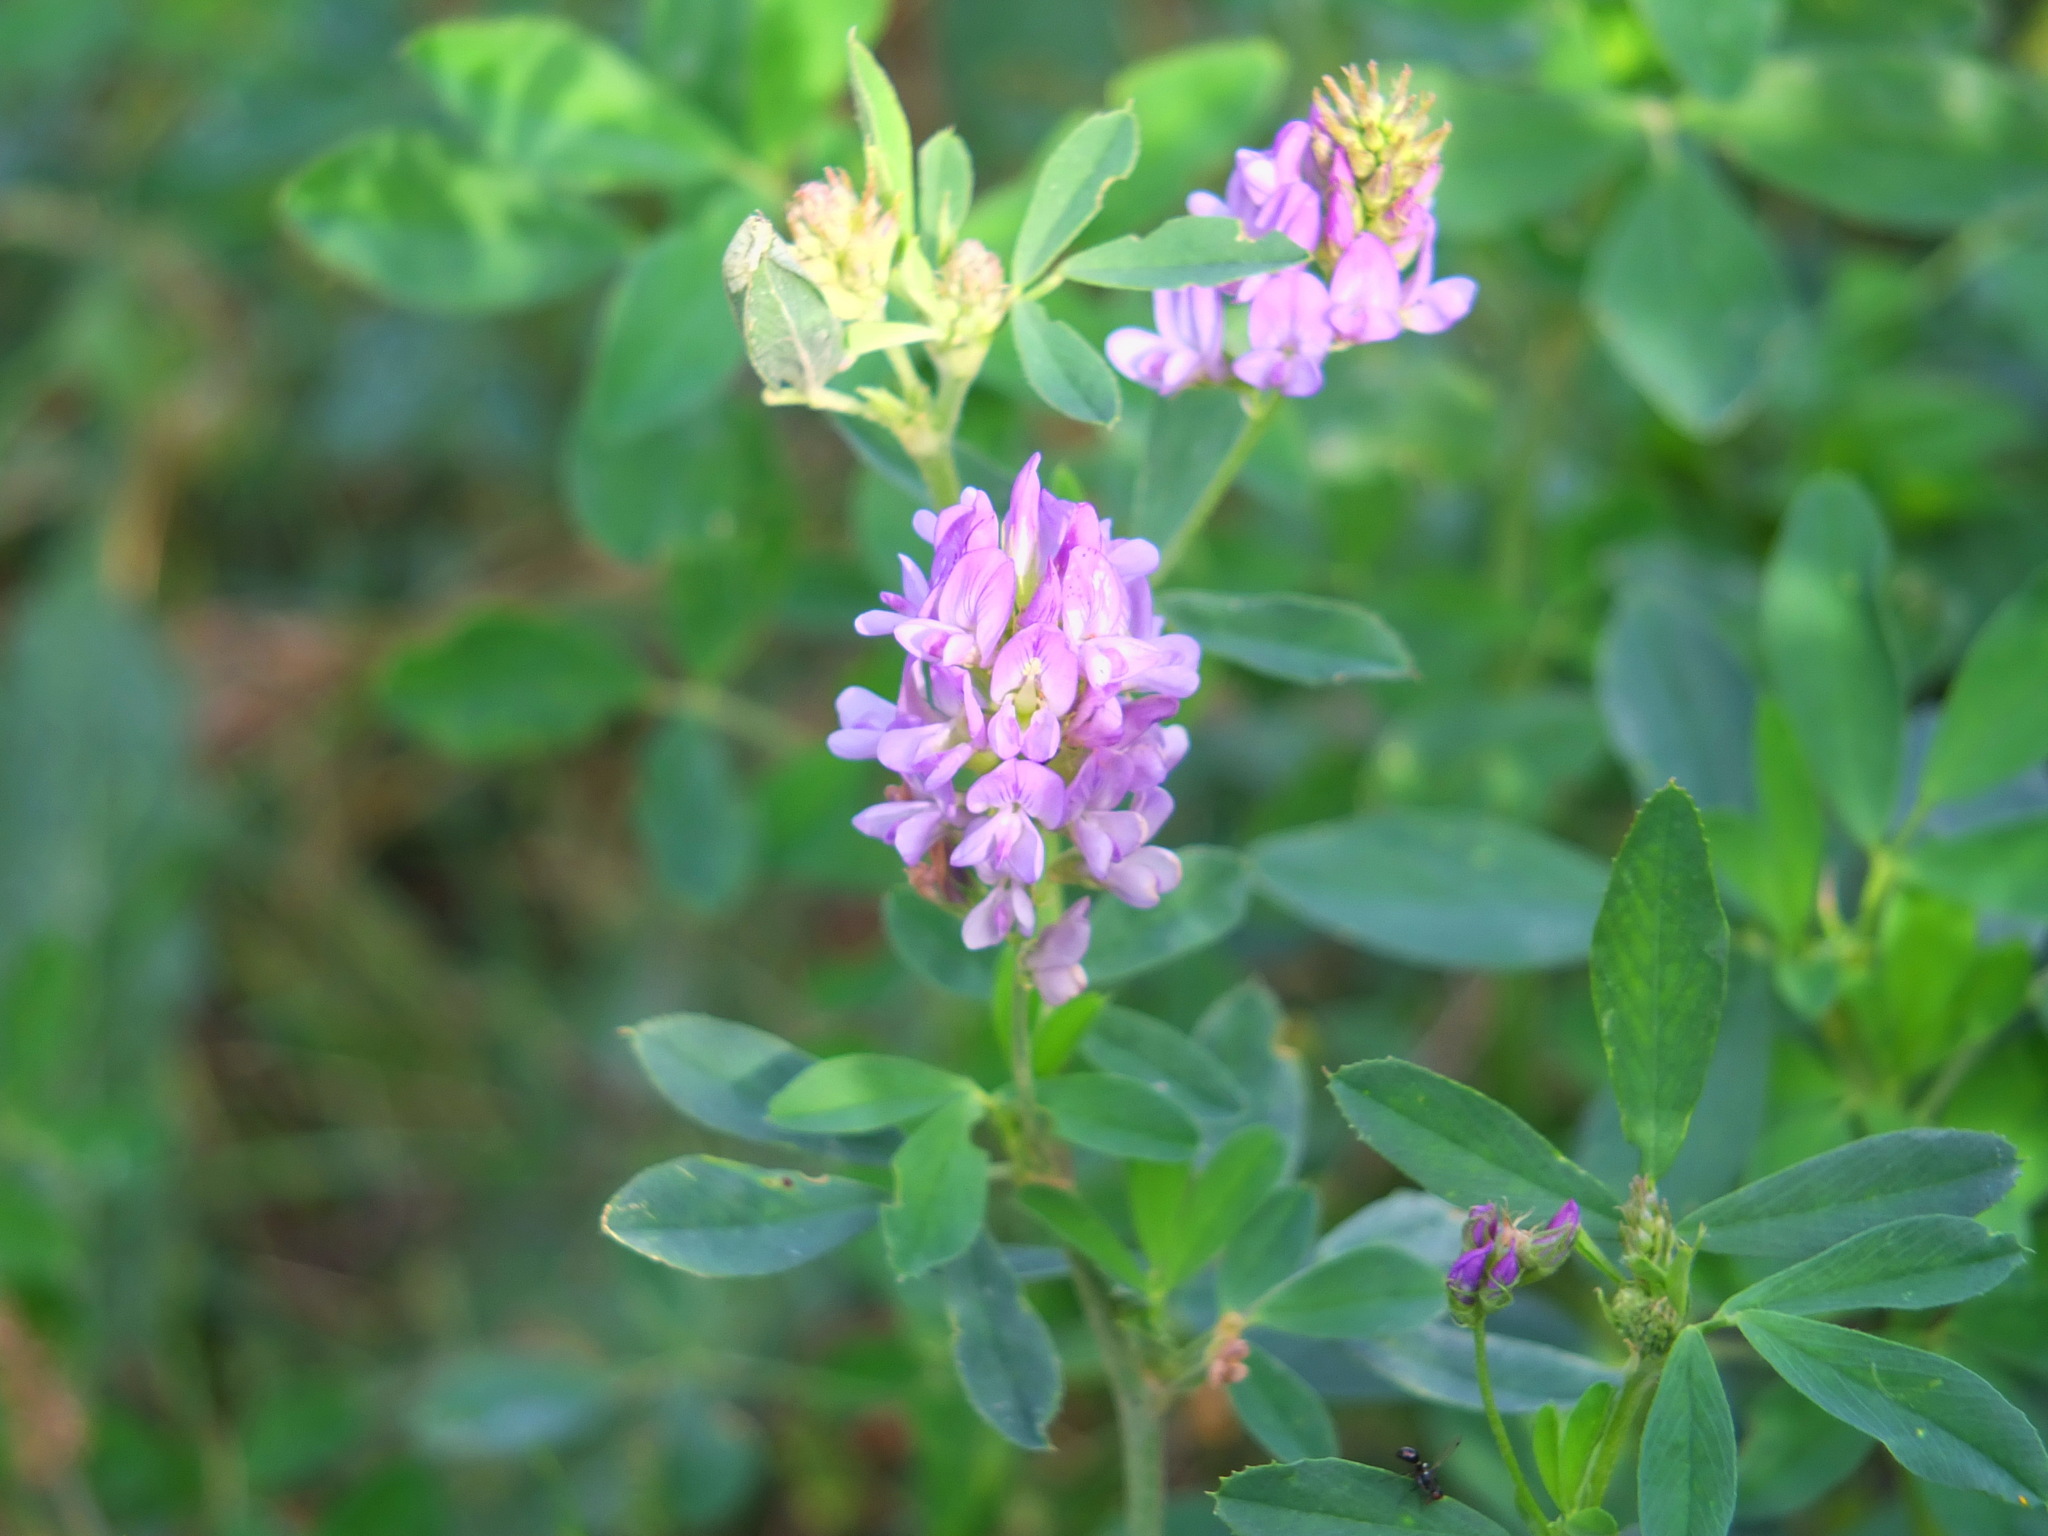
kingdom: Plantae
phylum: Tracheophyta
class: Magnoliopsida
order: Fabales
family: Fabaceae
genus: Medicago
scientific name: Medicago sativa
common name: Alfalfa
